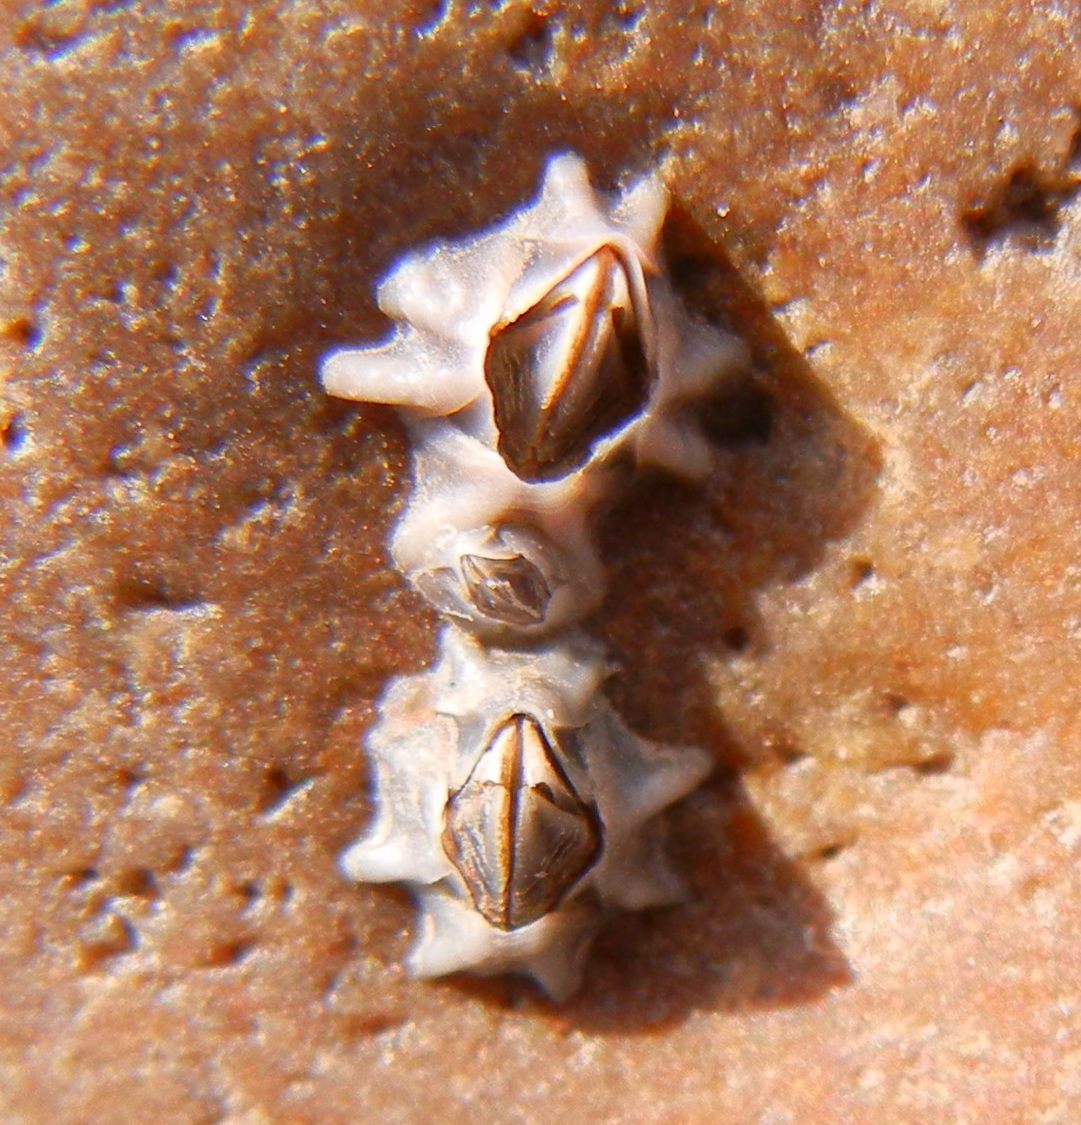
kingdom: Animalia
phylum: Arthropoda
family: Elminiidae
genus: Austrominius
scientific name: Austrominius modestus
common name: Australasian barnacle
